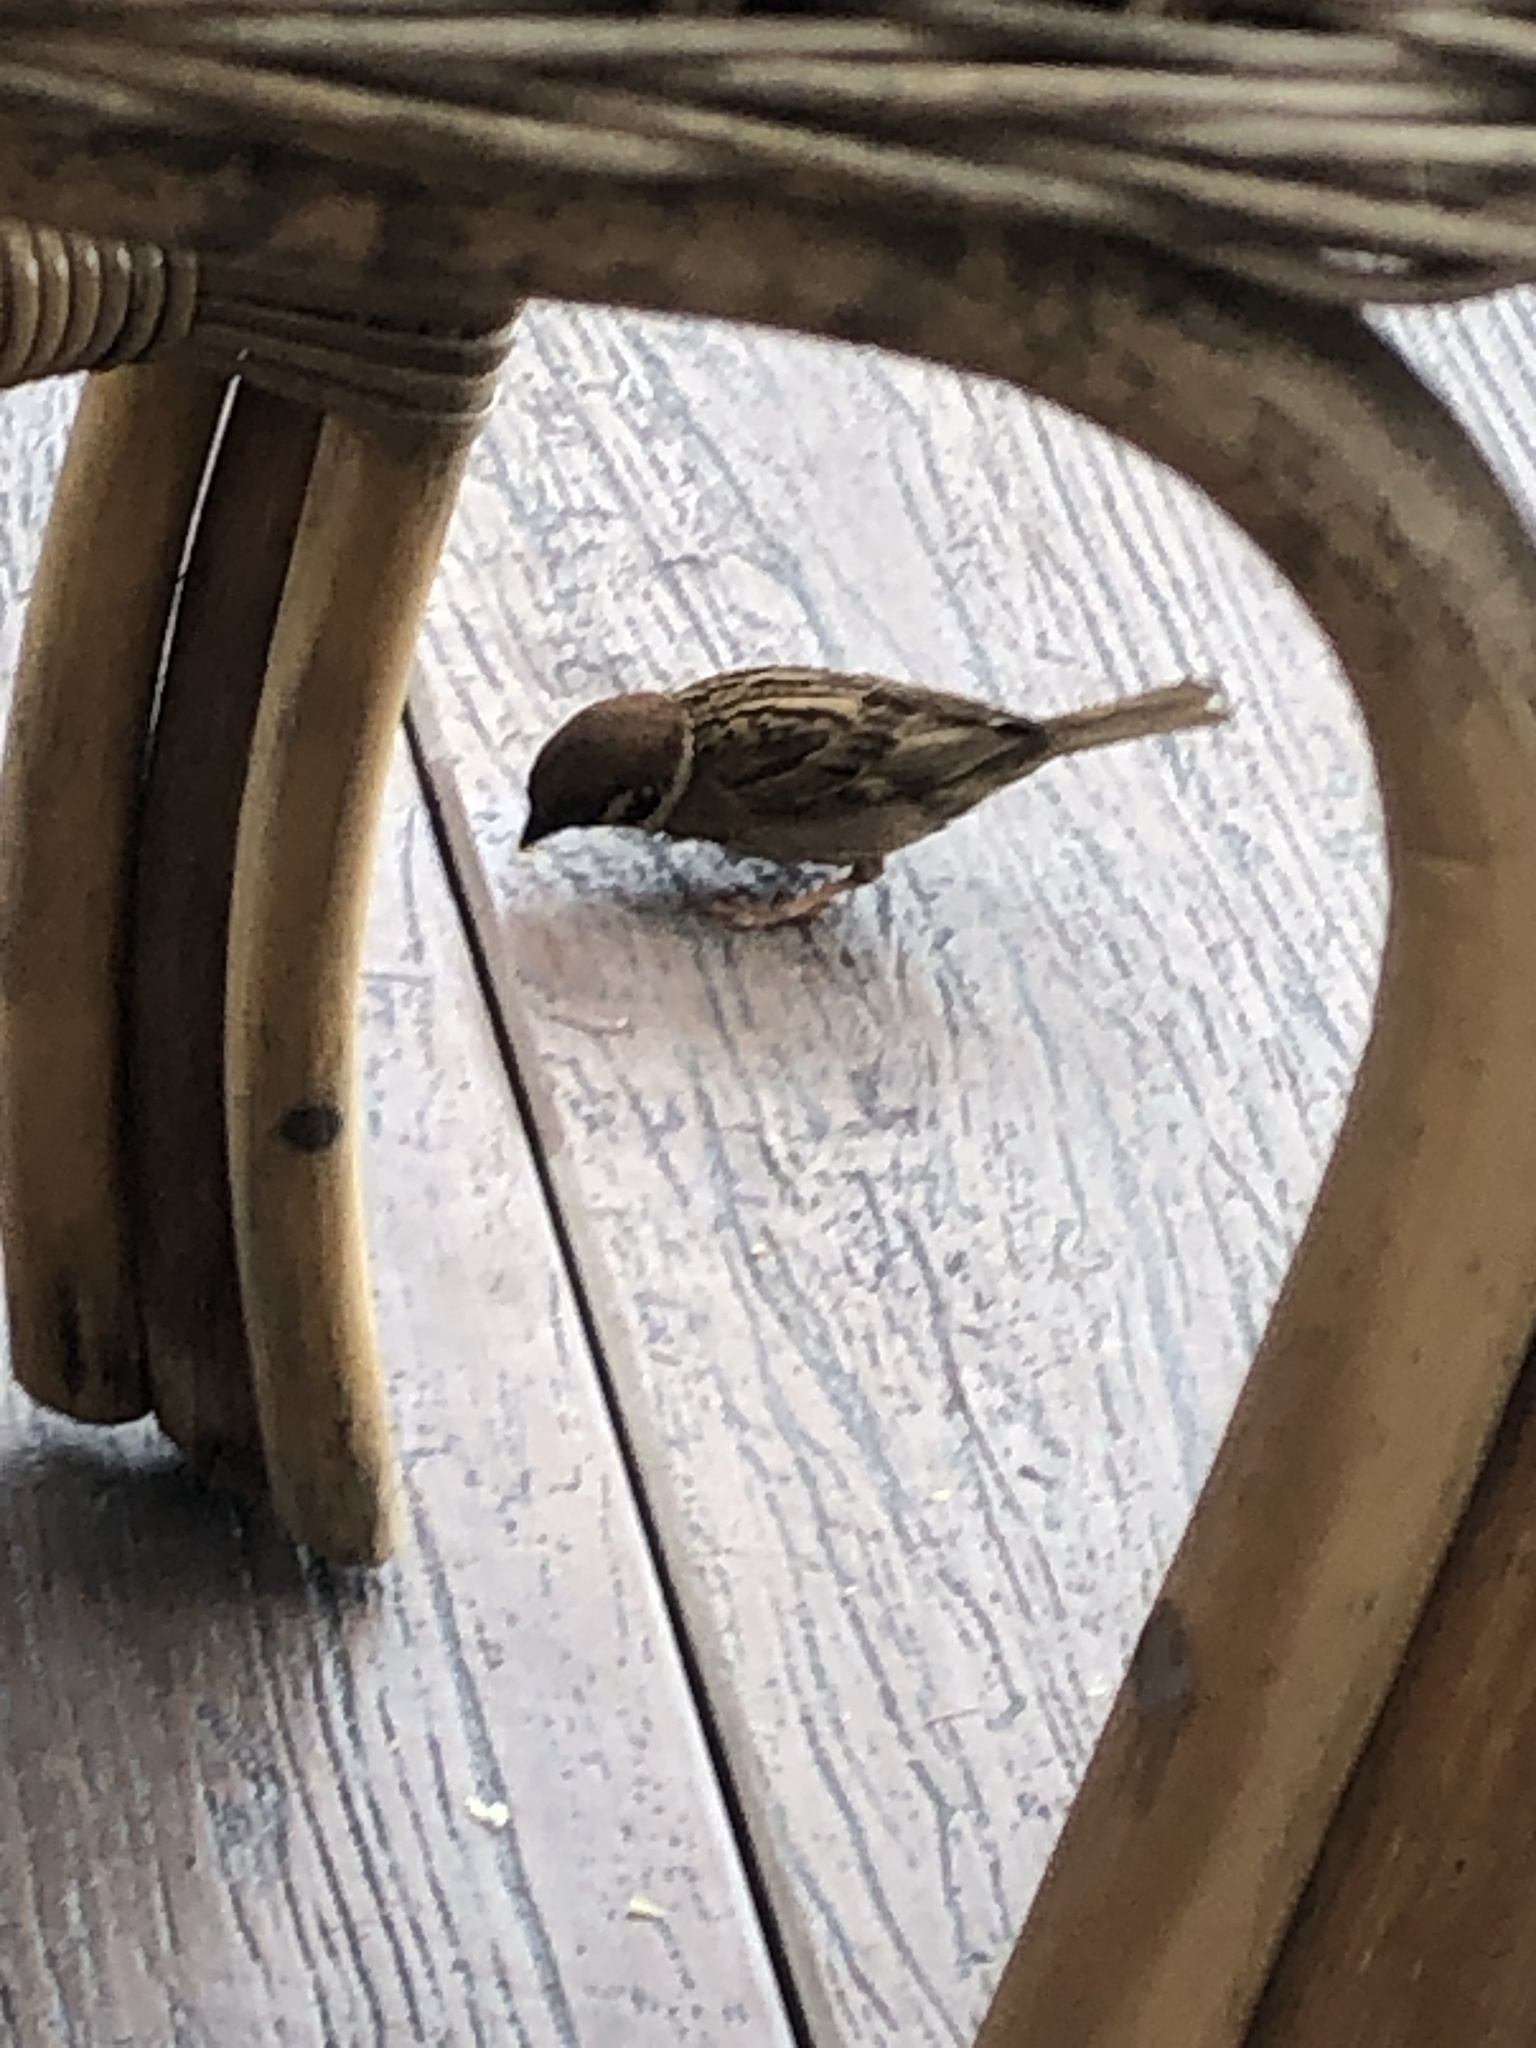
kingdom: Animalia
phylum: Chordata
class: Aves
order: Passeriformes
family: Passeridae
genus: Passer
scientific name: Passer montanus
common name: Eurasian tree sparrow
